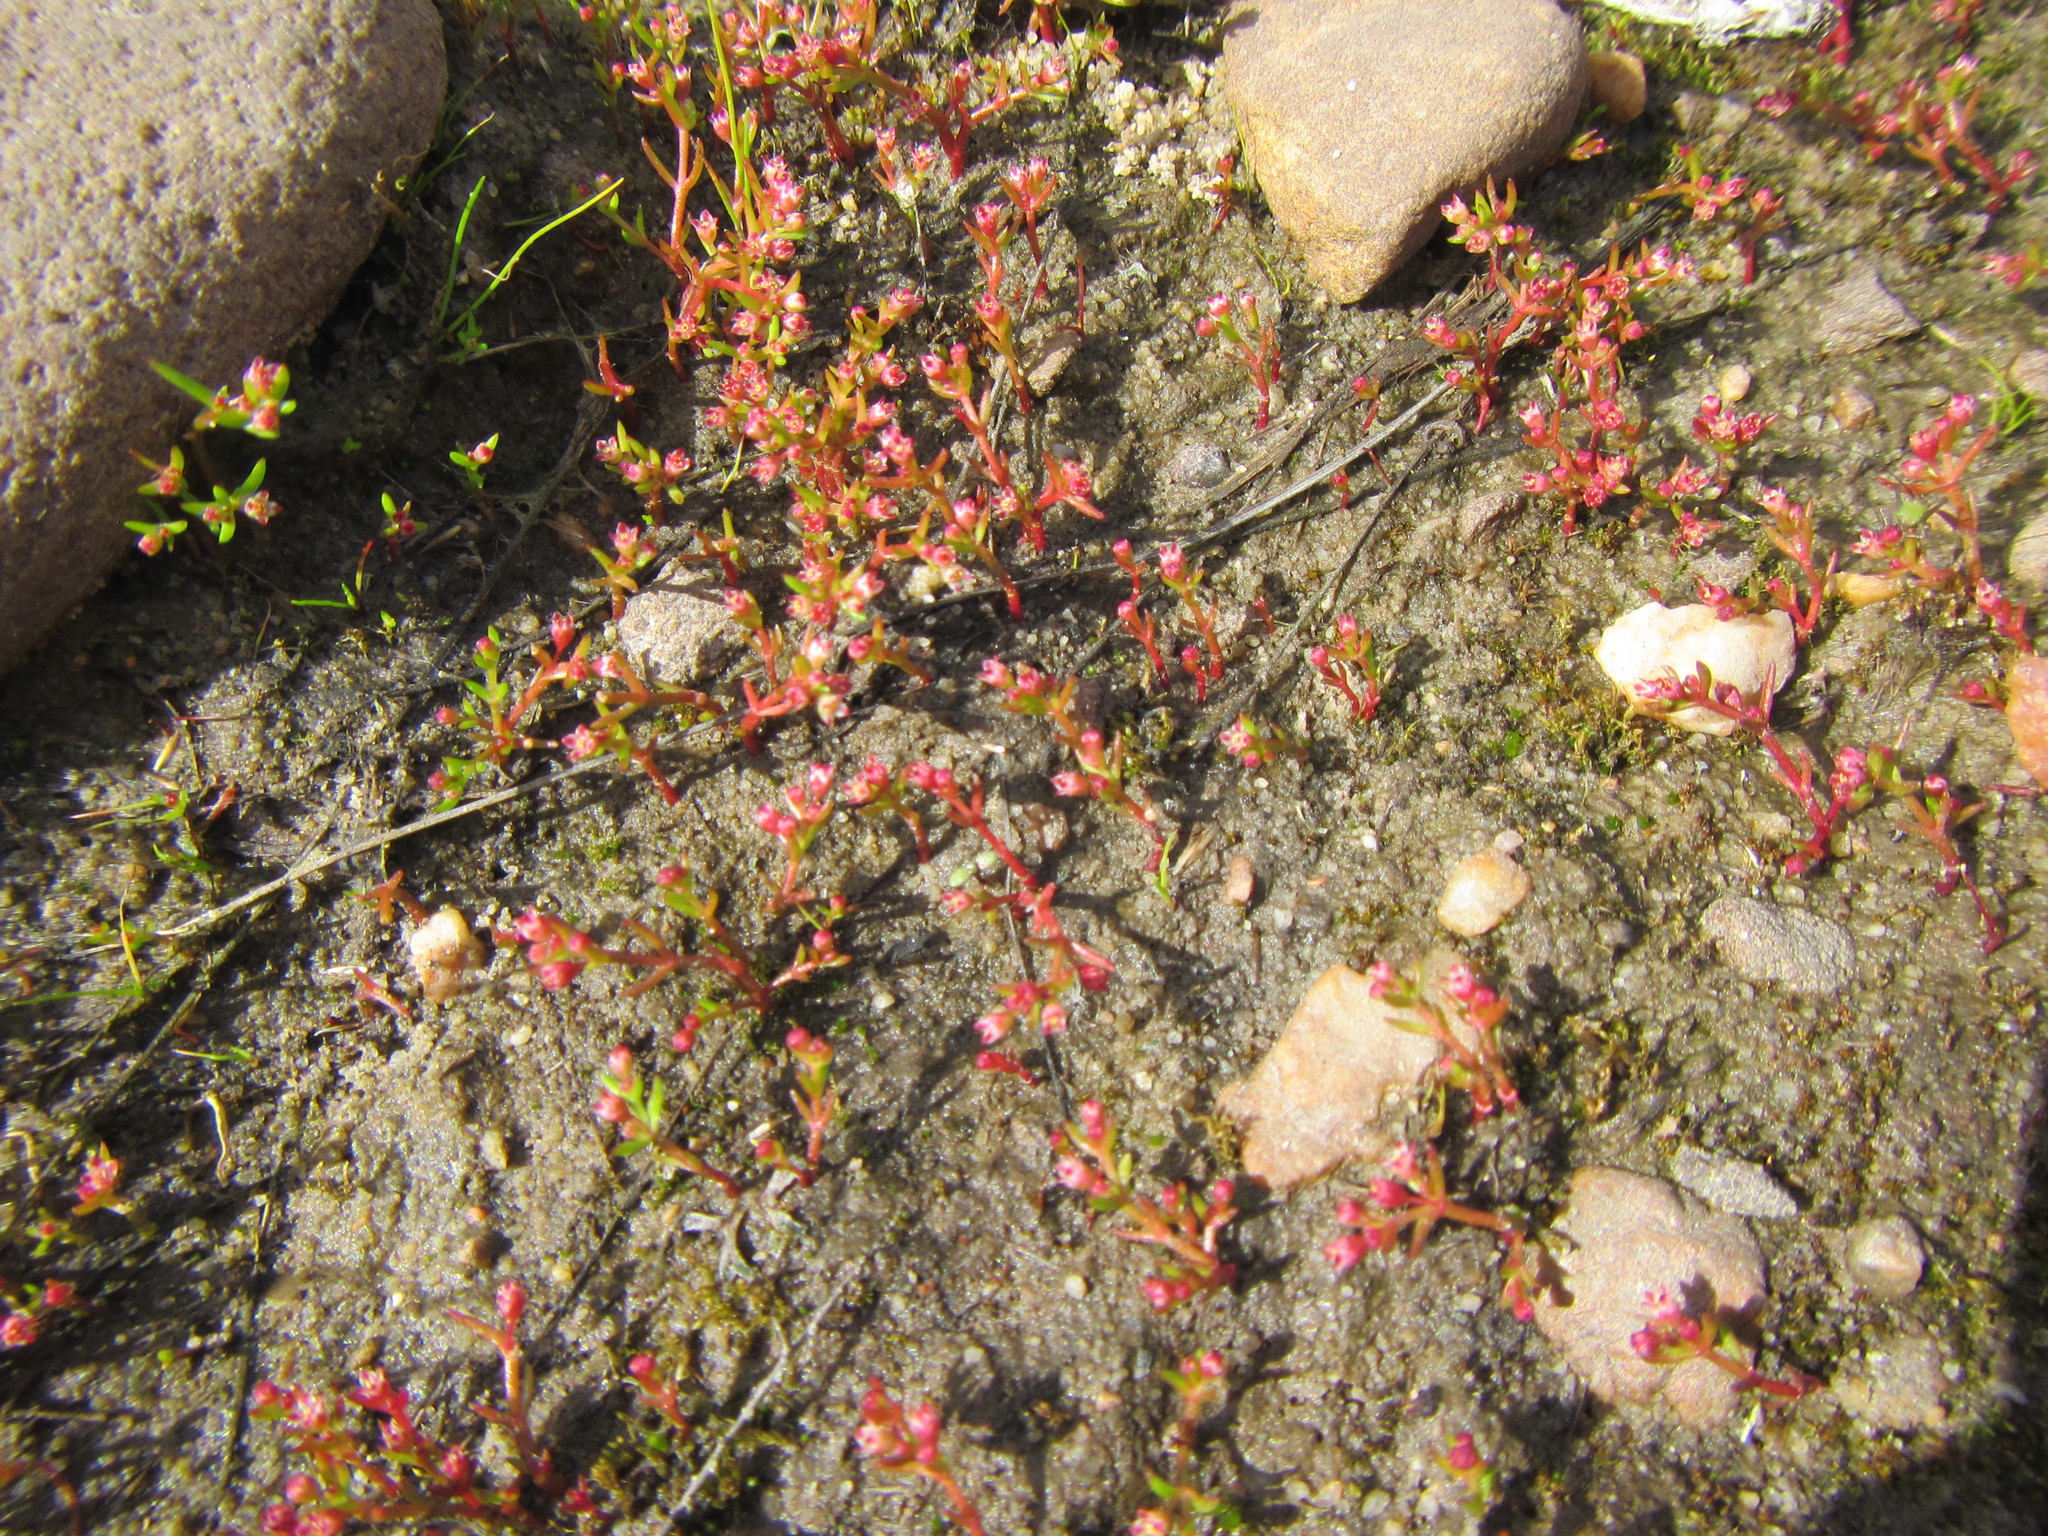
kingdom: Plantae
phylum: Tracheophyta
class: Magnoliopsida
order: Saxifragales
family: Crassulaceae
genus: Crassula
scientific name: Crassula vaillantii
